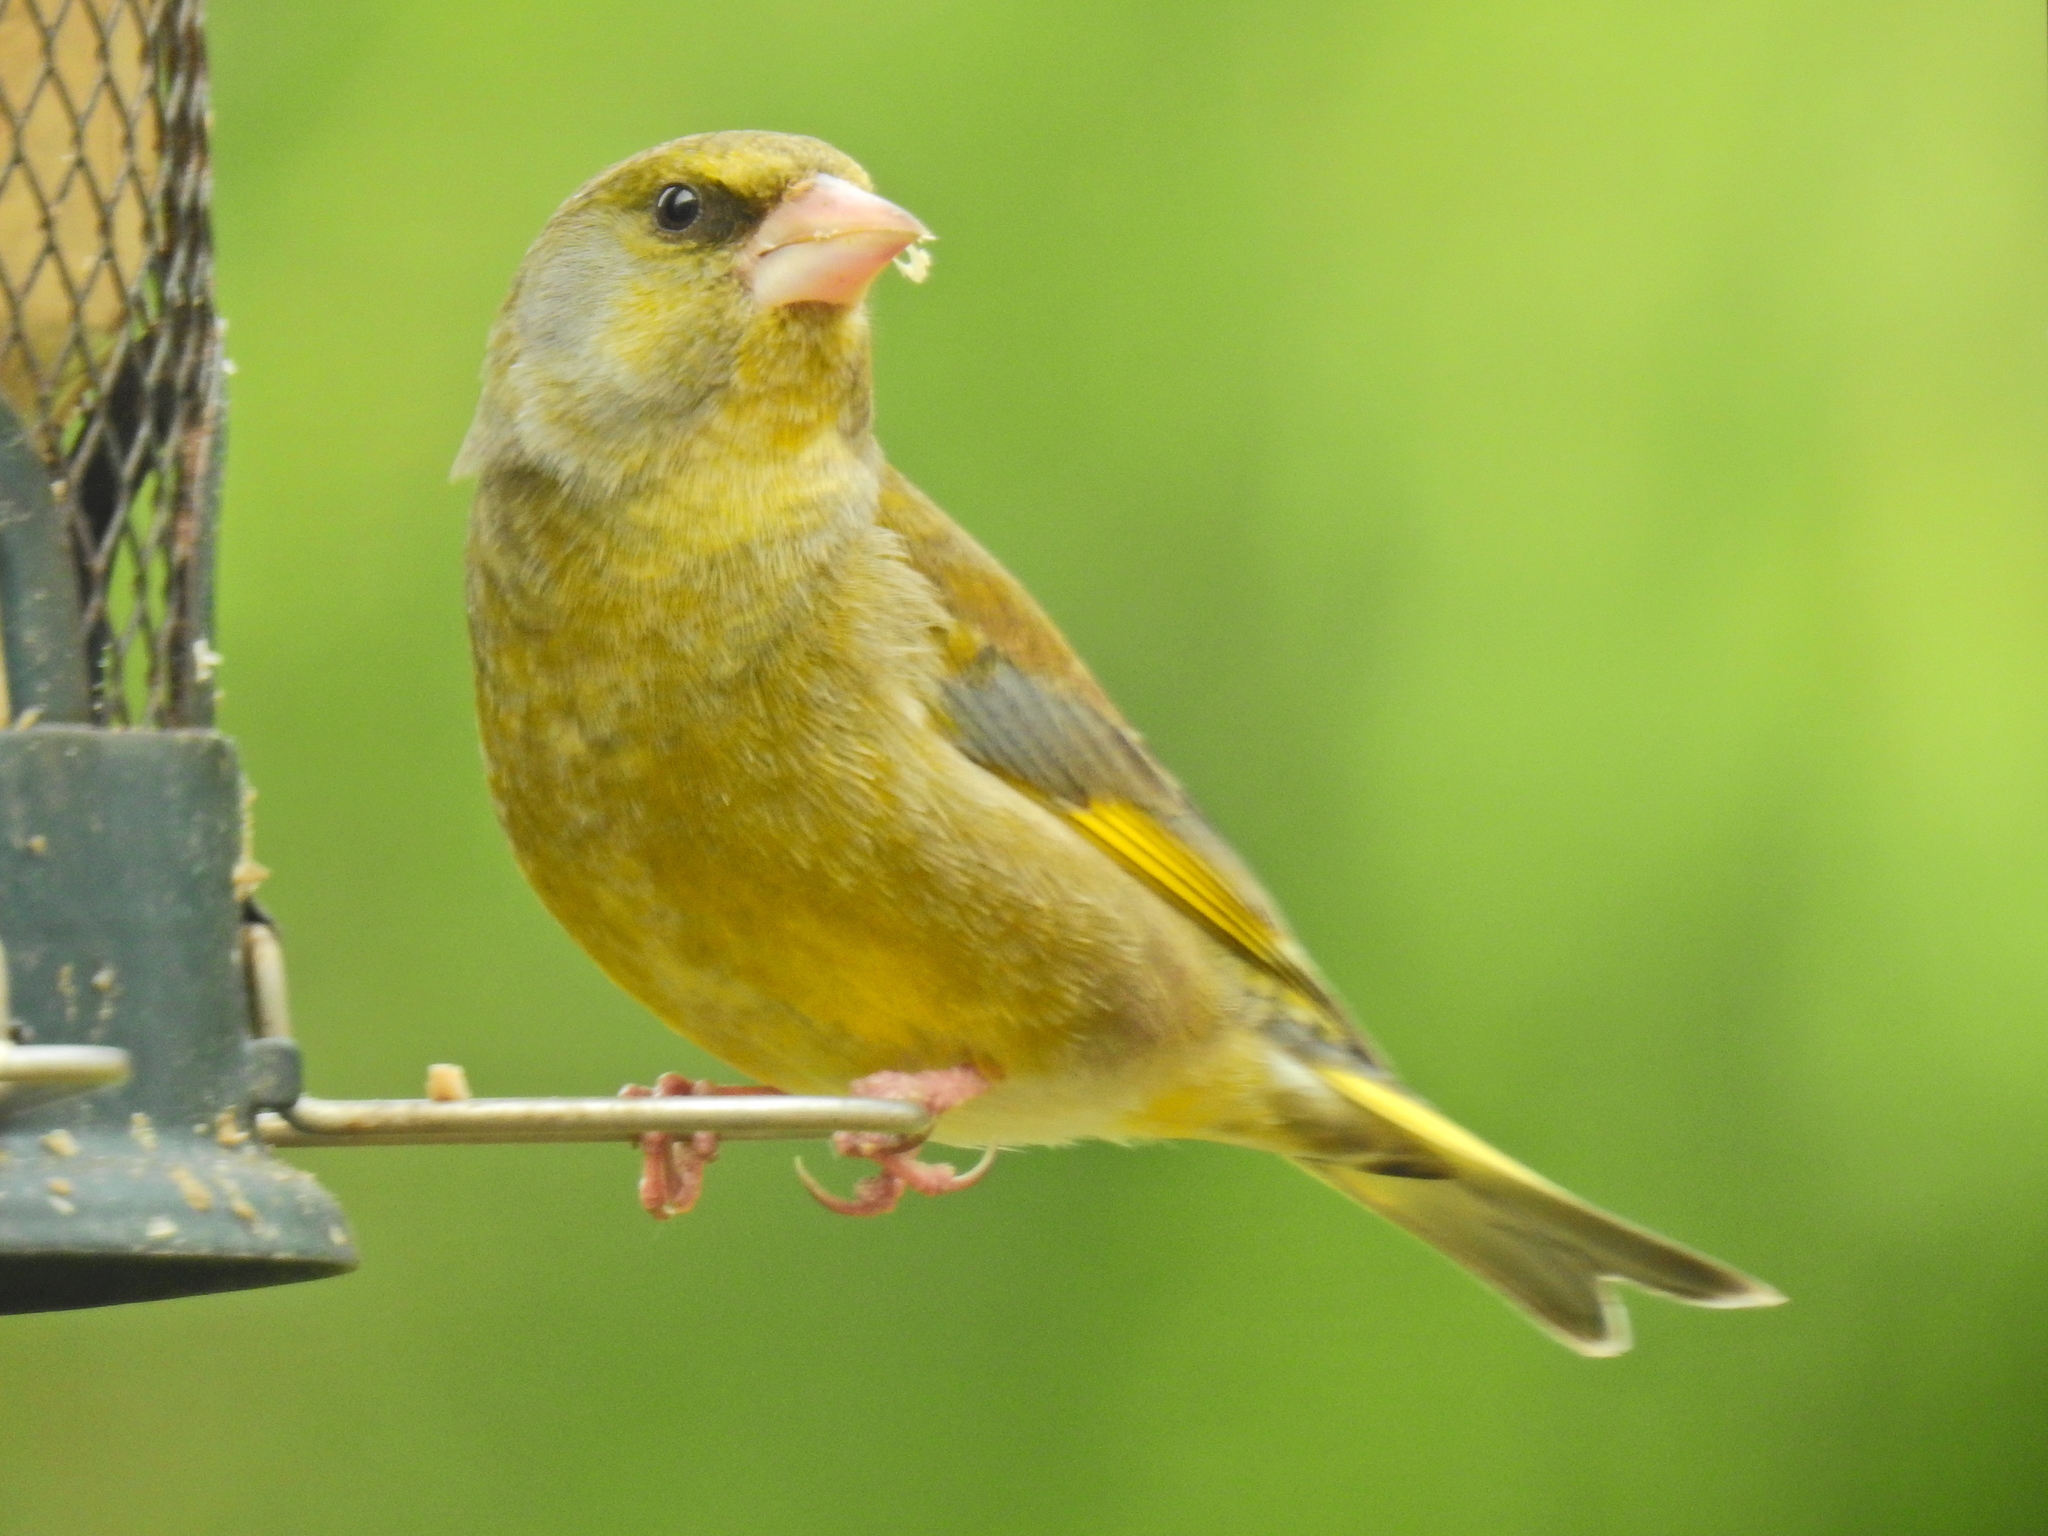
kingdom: Plantae
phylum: Tracheophyta
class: Liliopsida
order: Poales
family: Poaceae
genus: Chloris
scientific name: Chloris chloris
